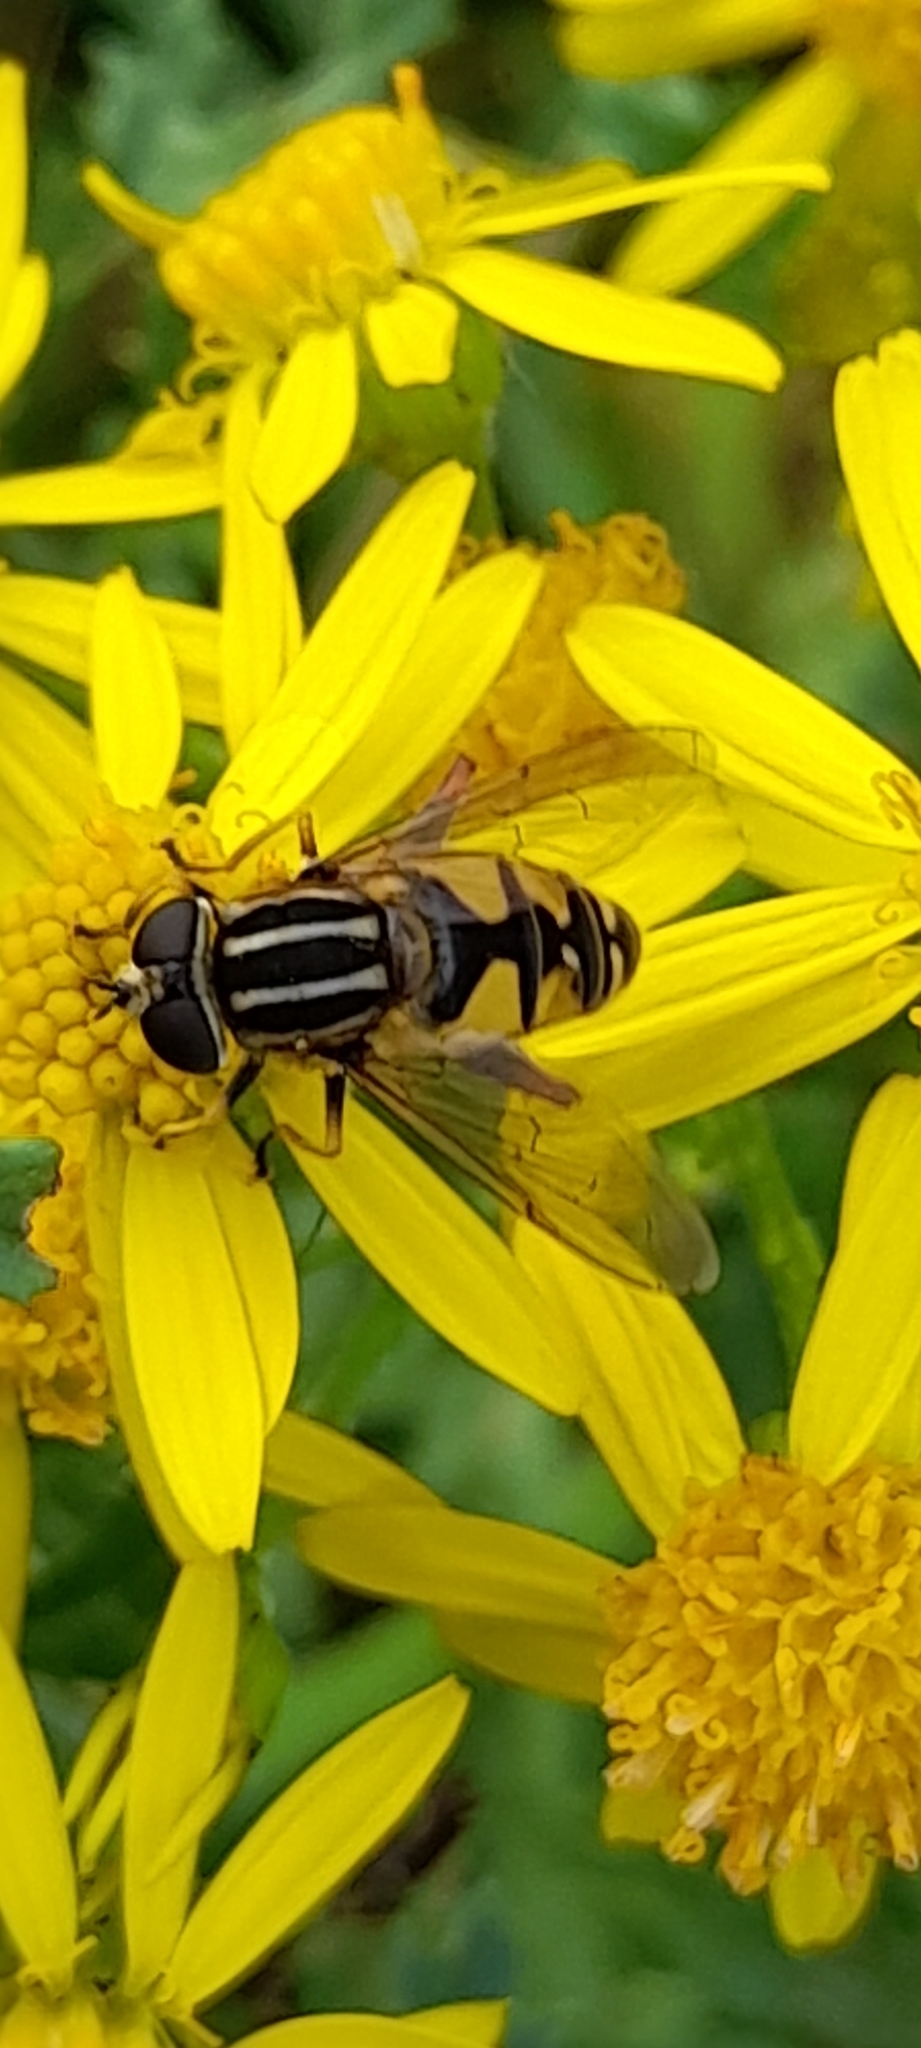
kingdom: Animalia
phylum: Arthropoda
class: Insecta
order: Diptera
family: Syrphidae
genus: Helophilus
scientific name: Helophilus pendulus
